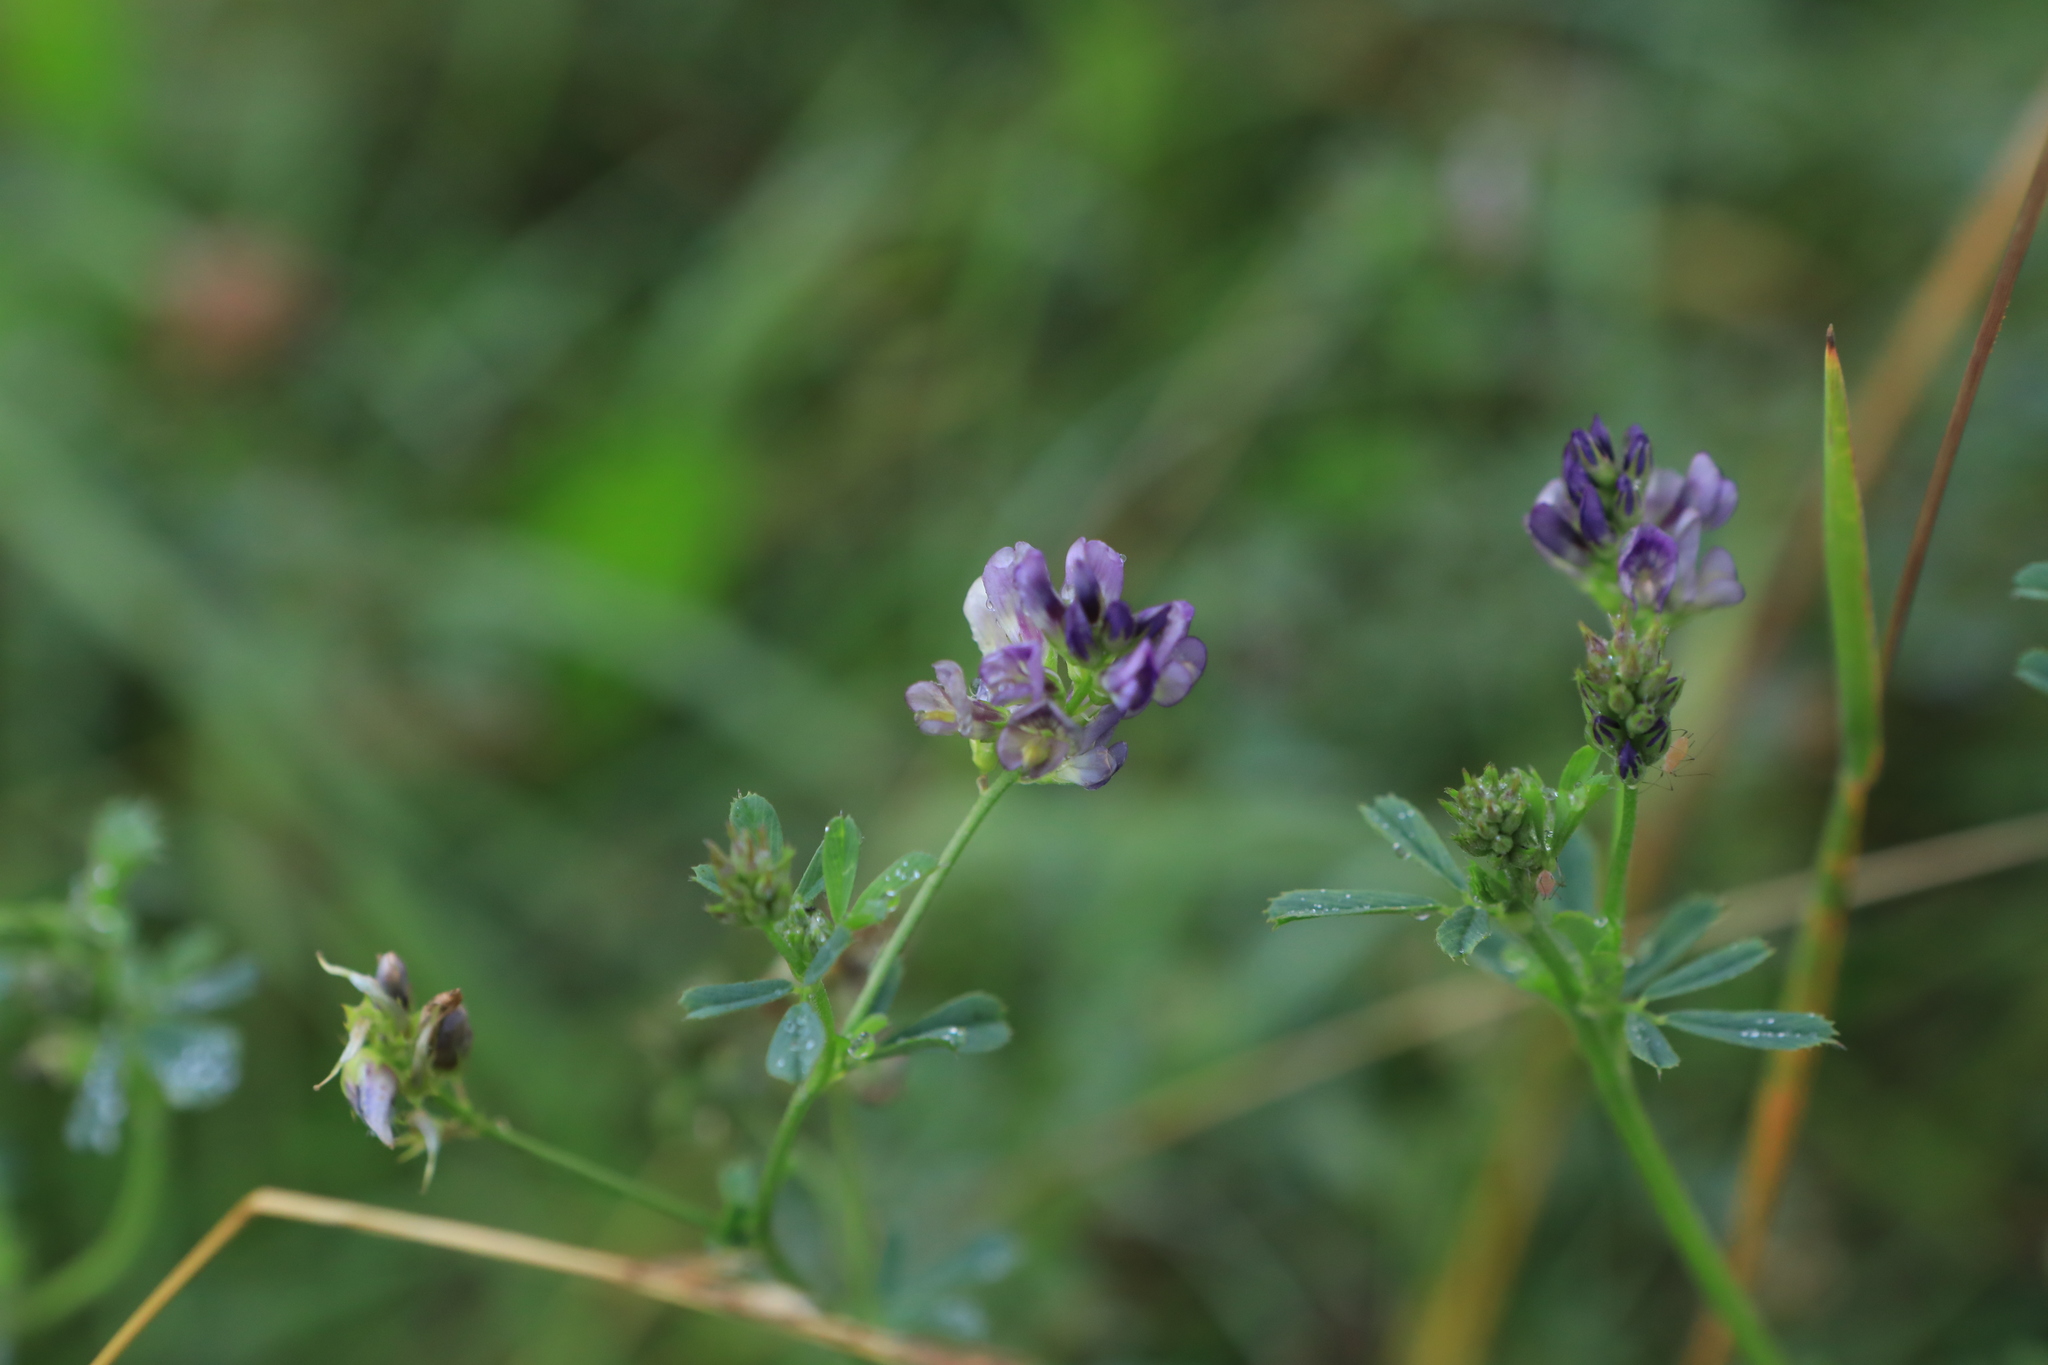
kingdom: Plantae
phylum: Tracheophyta
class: Magnoliopsida
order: Fabales
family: Fabaceae
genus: Medicago
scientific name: Medicago varia
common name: Sand lucerne
